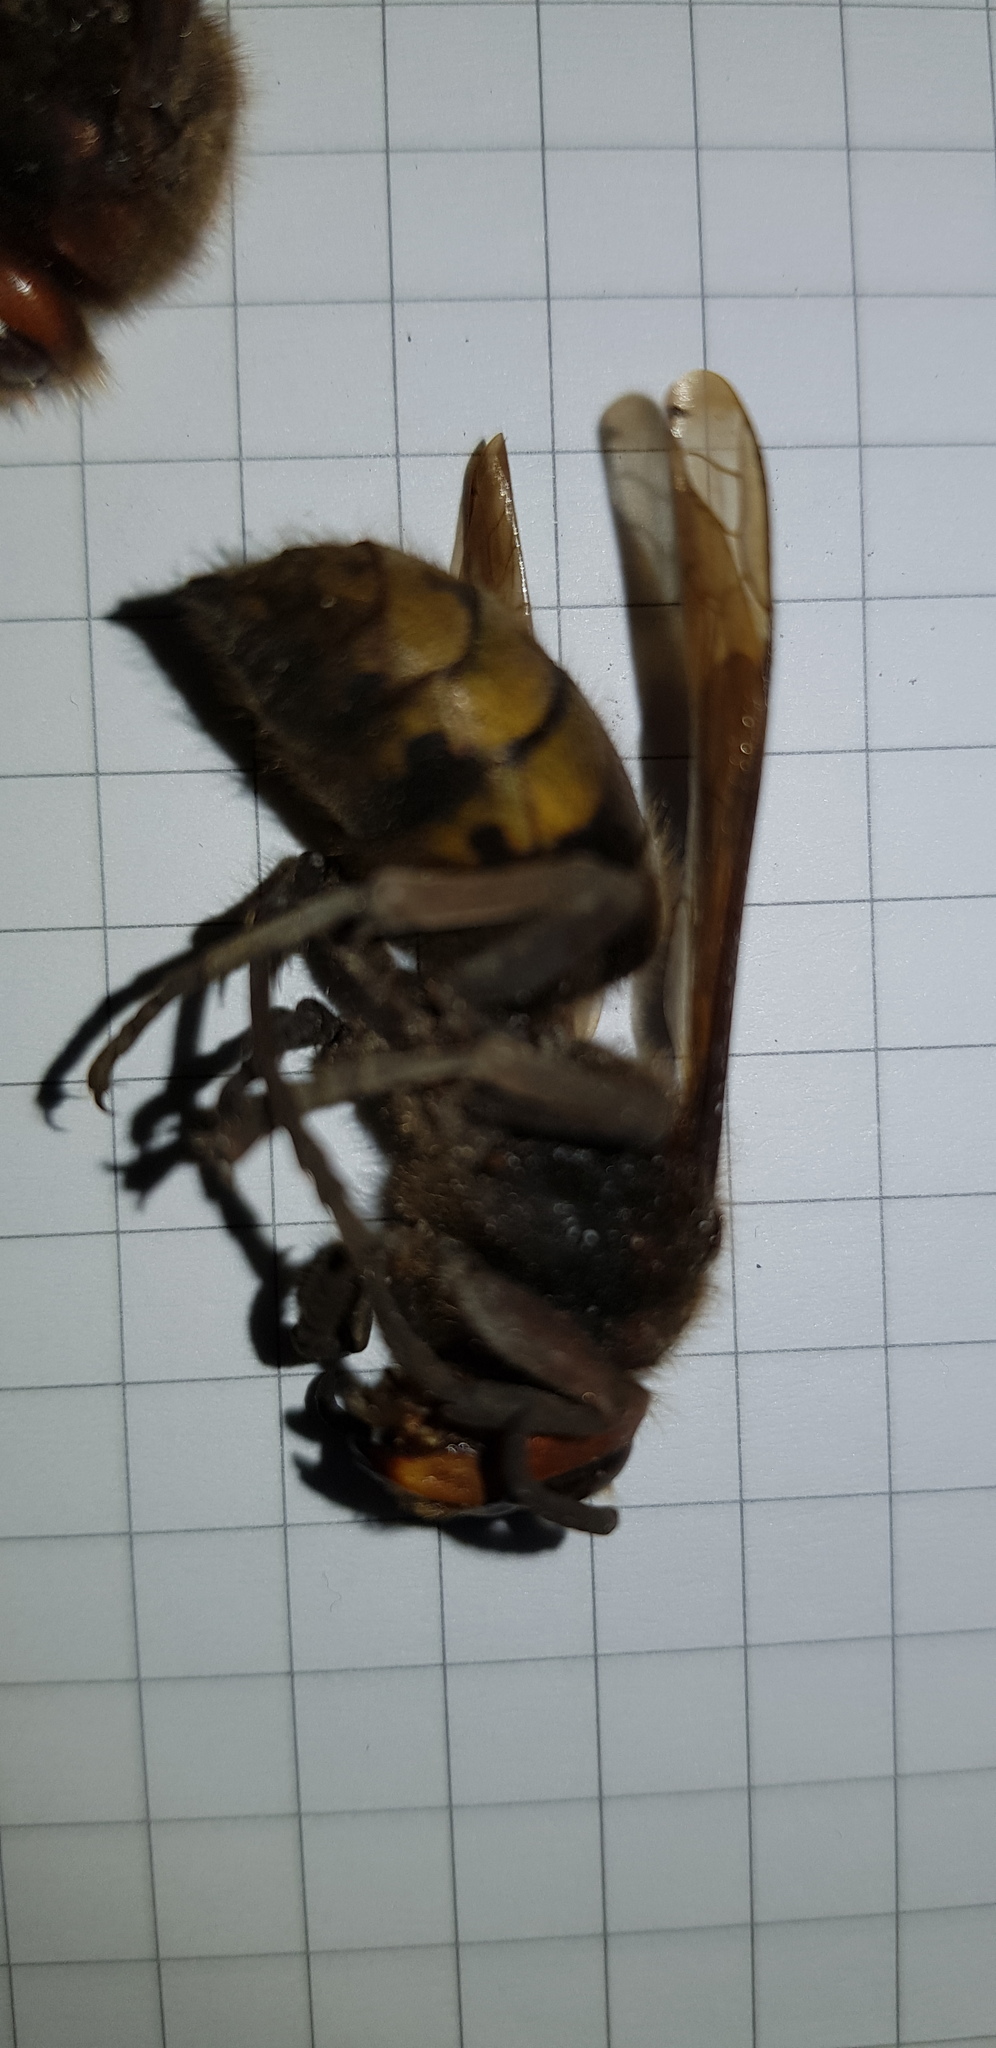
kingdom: Animalia
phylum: Arthropoda
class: Insecta
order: Hymenoptera
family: Vespidae
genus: Vespa
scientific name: Vespa crabro
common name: Hornet
